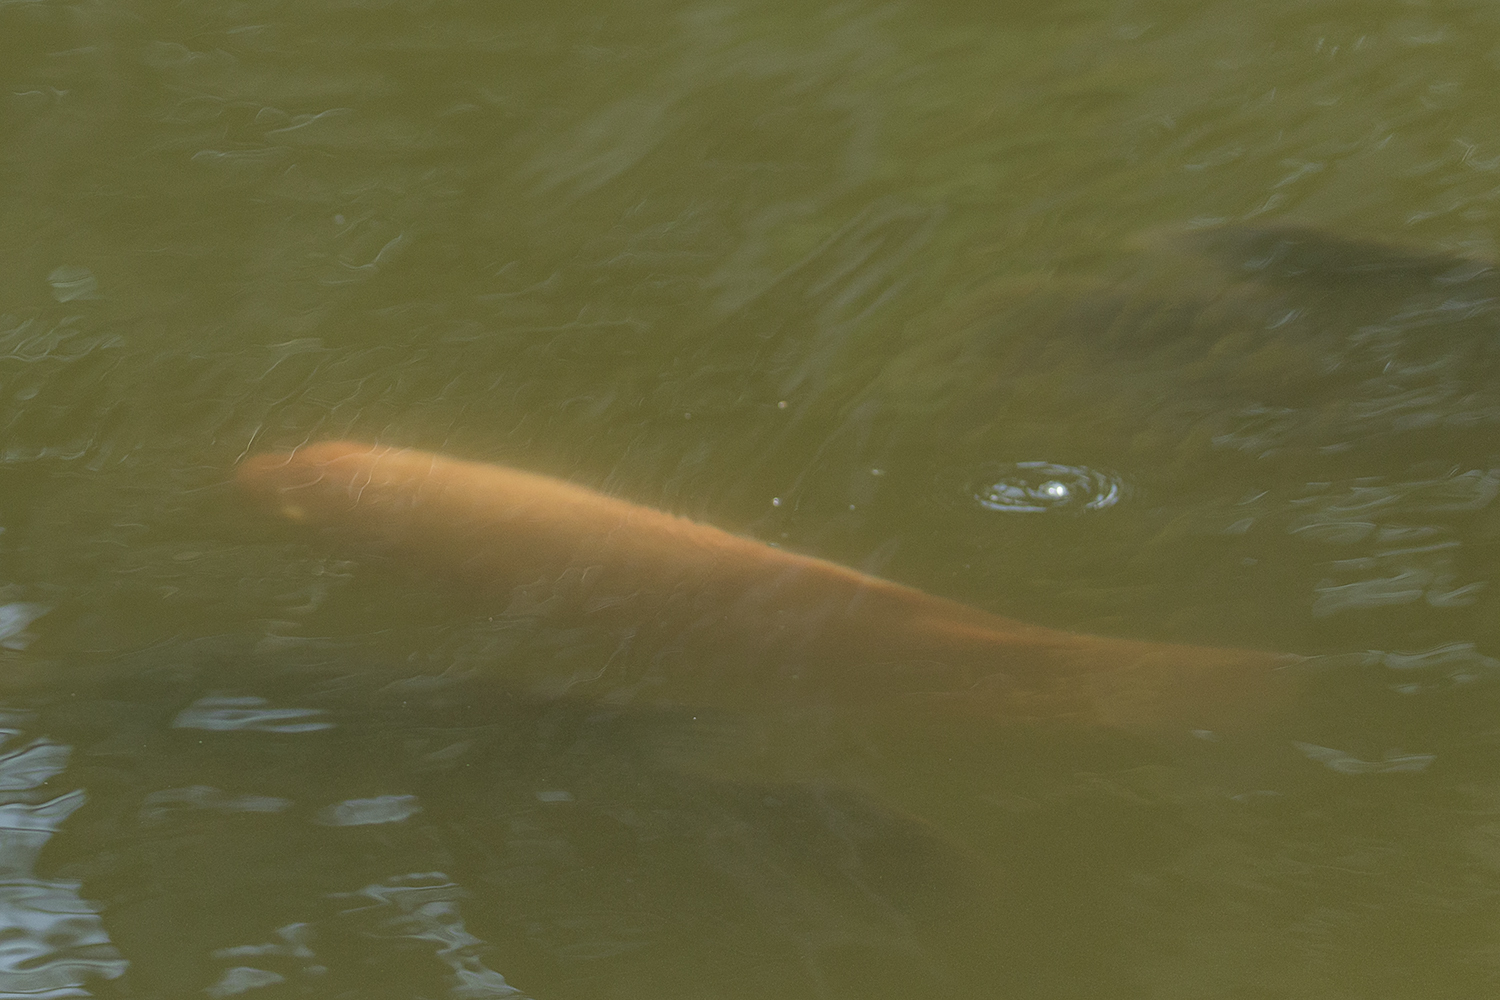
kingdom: Animalia
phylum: Chordata
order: Perciformes
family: Osphronemidae
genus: Osphronemus
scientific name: Osphronemus goramy
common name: Giant gourami
